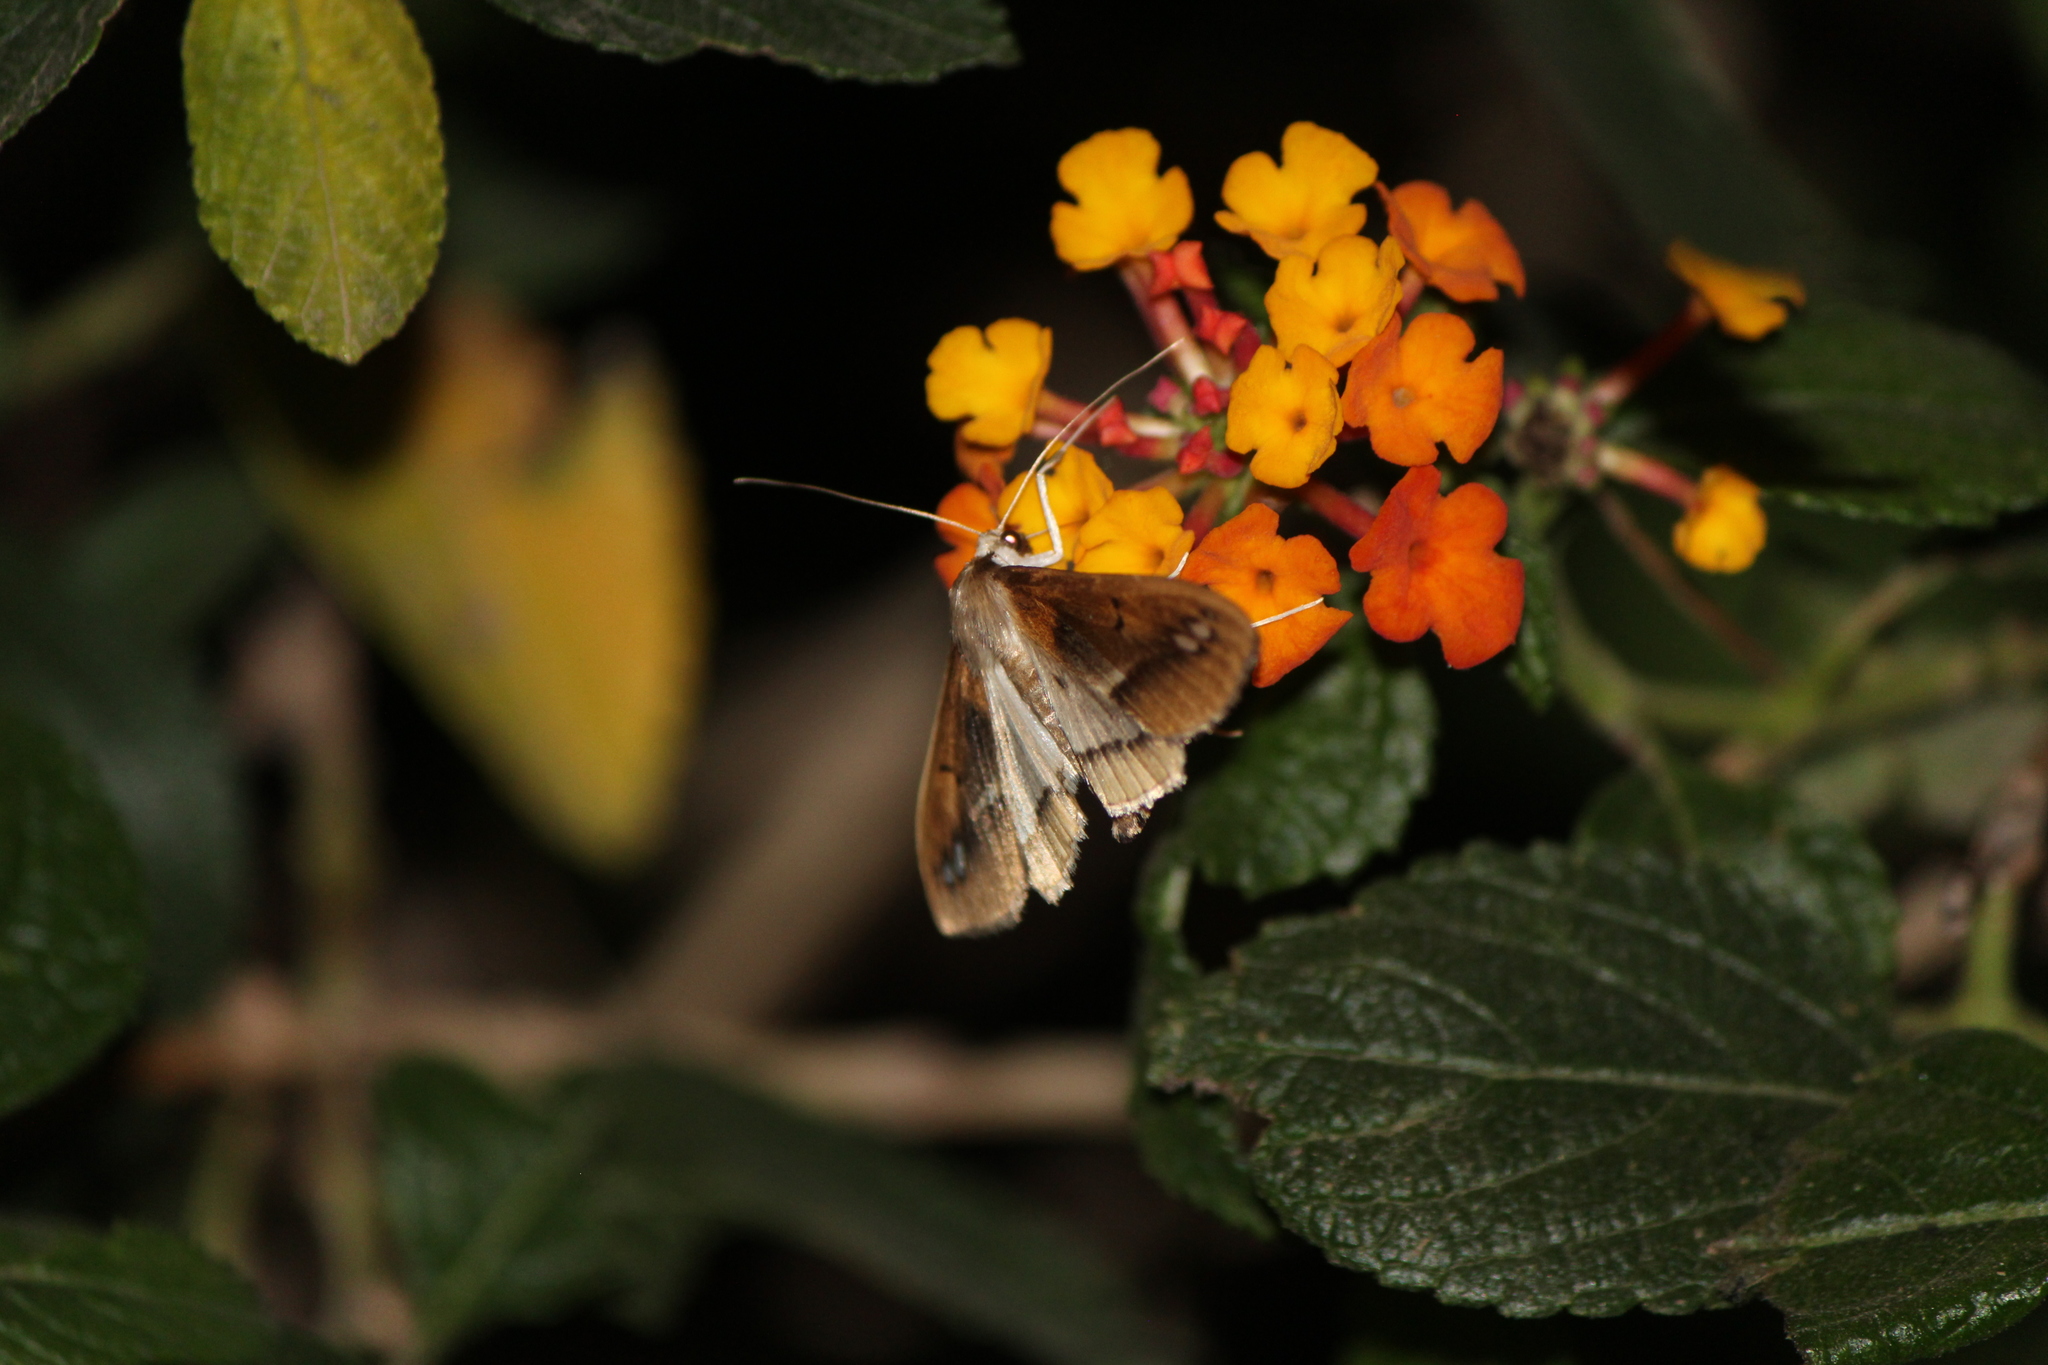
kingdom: Animalia
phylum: Arthropoda
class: Insecta
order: Lepidoptera
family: Crambidae
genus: Diaphania
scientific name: Diaphania
